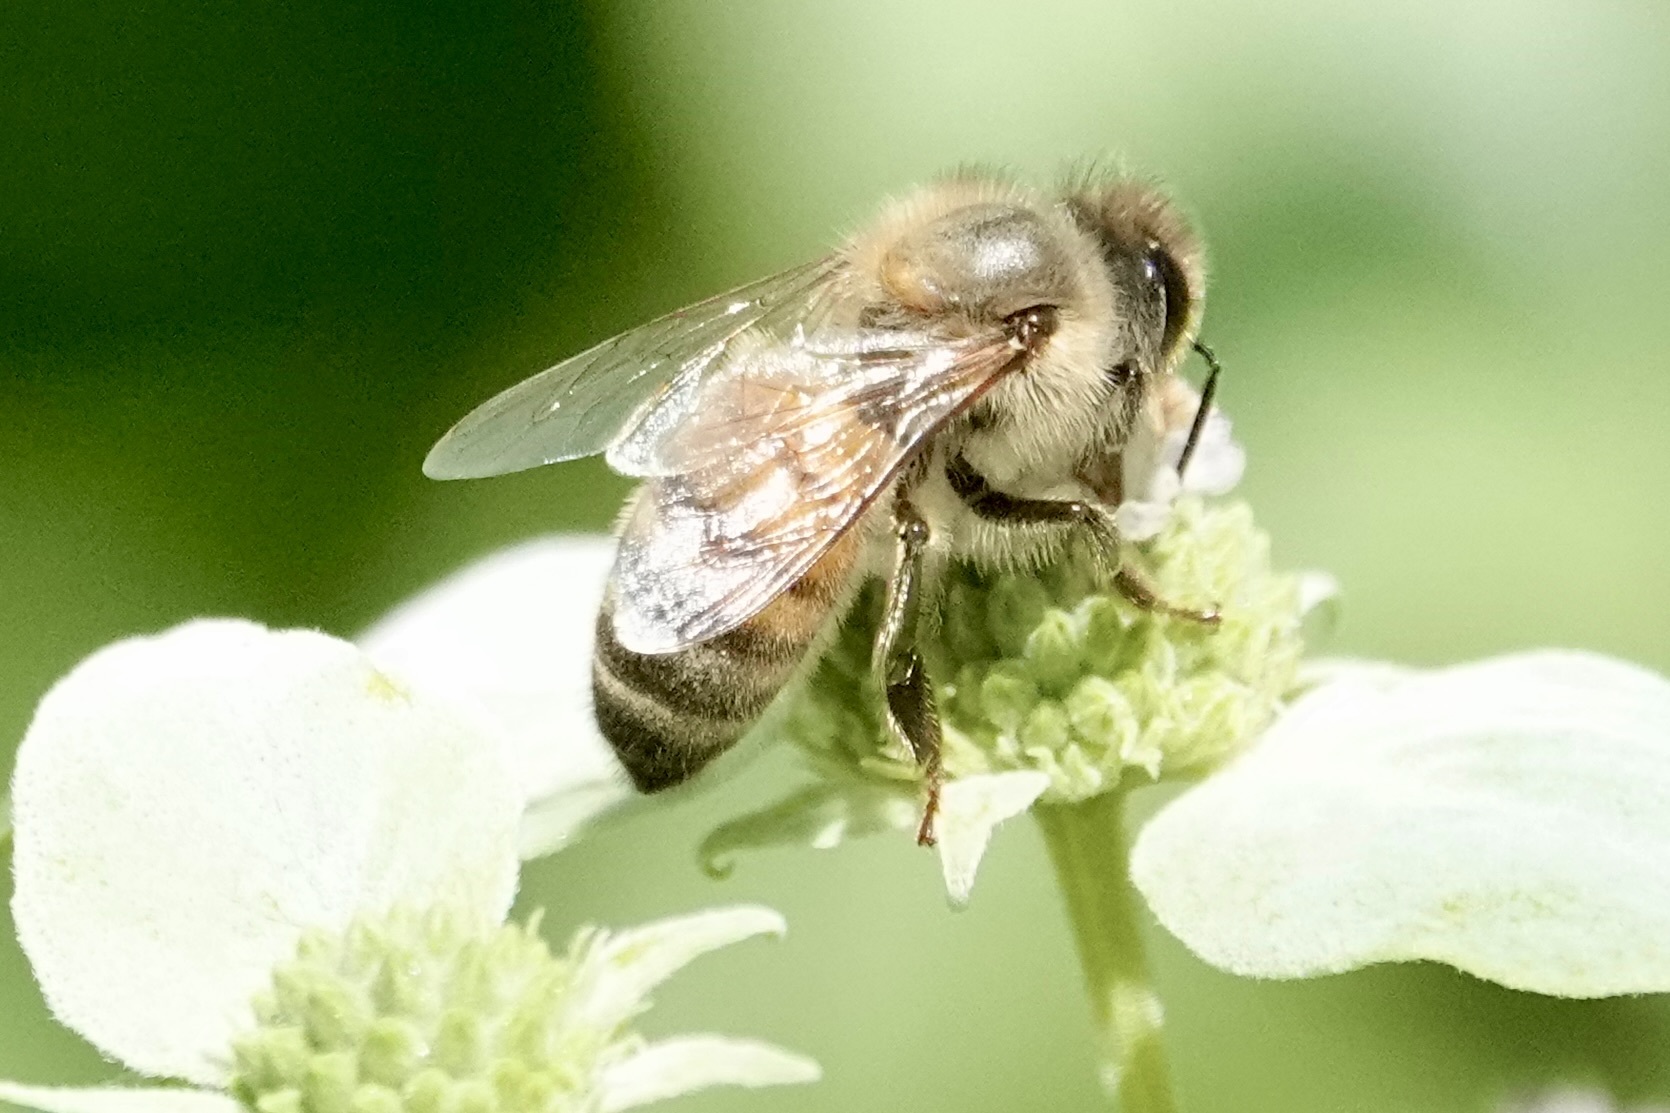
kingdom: Animalia
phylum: Arthropoda
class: Insecta
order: Hymenoptera
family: Apidae
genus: Apis
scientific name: Apis mellifera
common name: Honey bee
